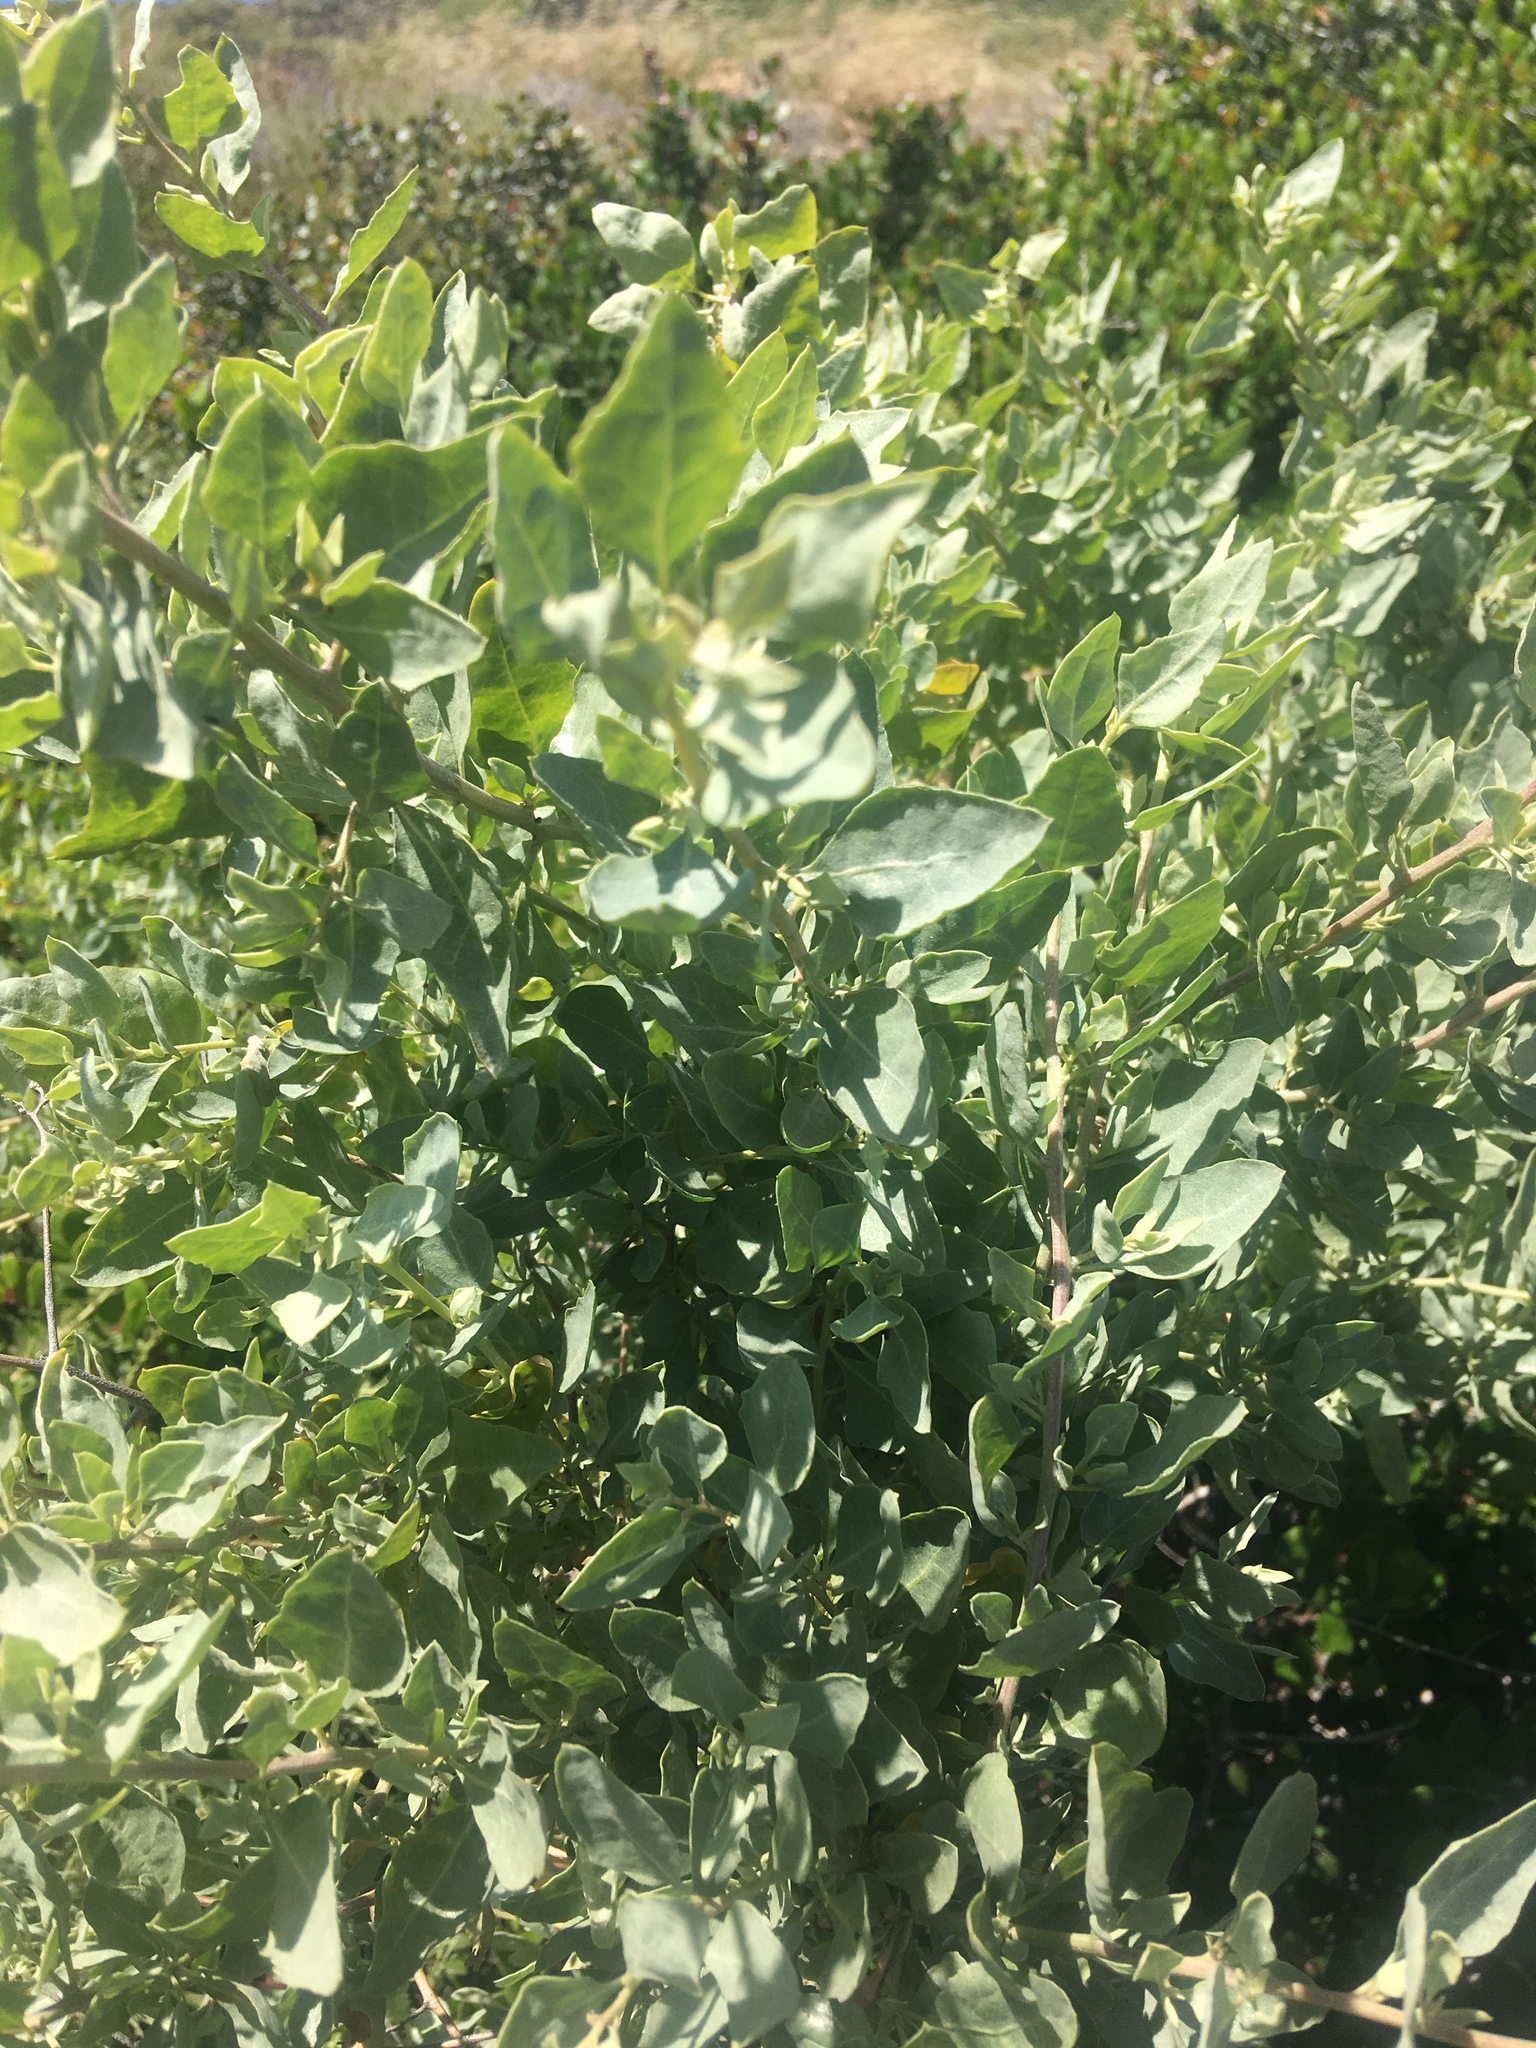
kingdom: Plantae
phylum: Tracheophyta
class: Magnoliopsida
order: Caryophyllales
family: Amaranthaceae
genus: Atriplex
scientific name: Atriplex lentiformis
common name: Big saltbush
